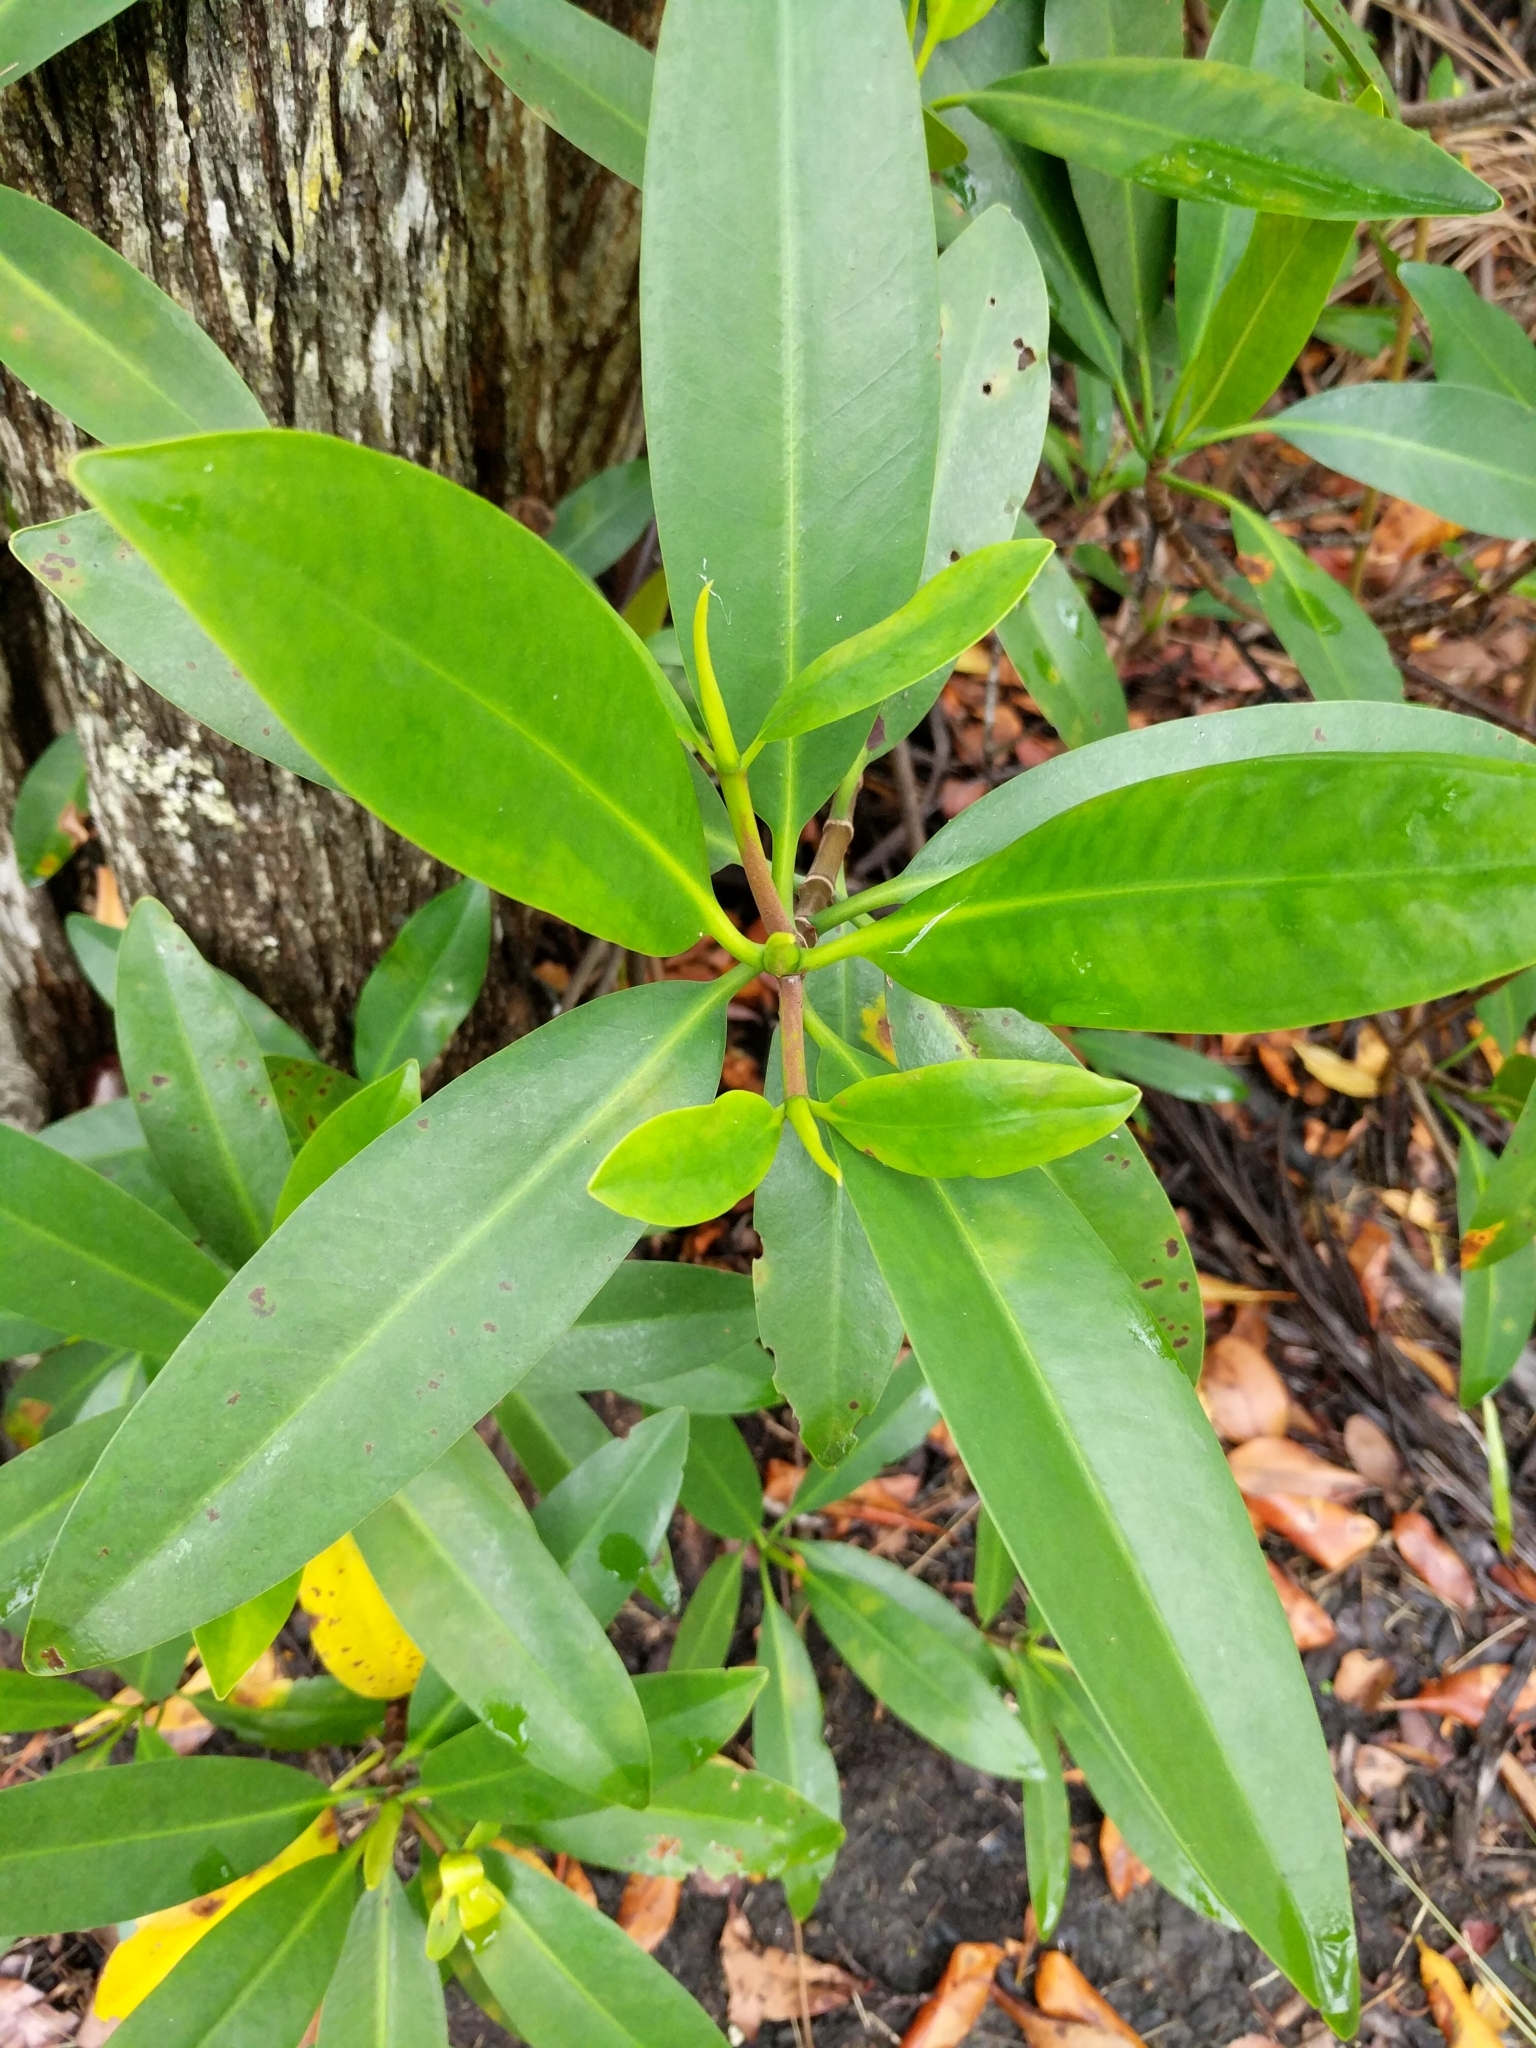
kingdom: Plantae
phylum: Tracheophyta
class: Magnoliopsida
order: Malpighiales
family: Rhizophoraceae
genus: Rhizophora
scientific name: Rhizophora mangle
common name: Red mangrove
